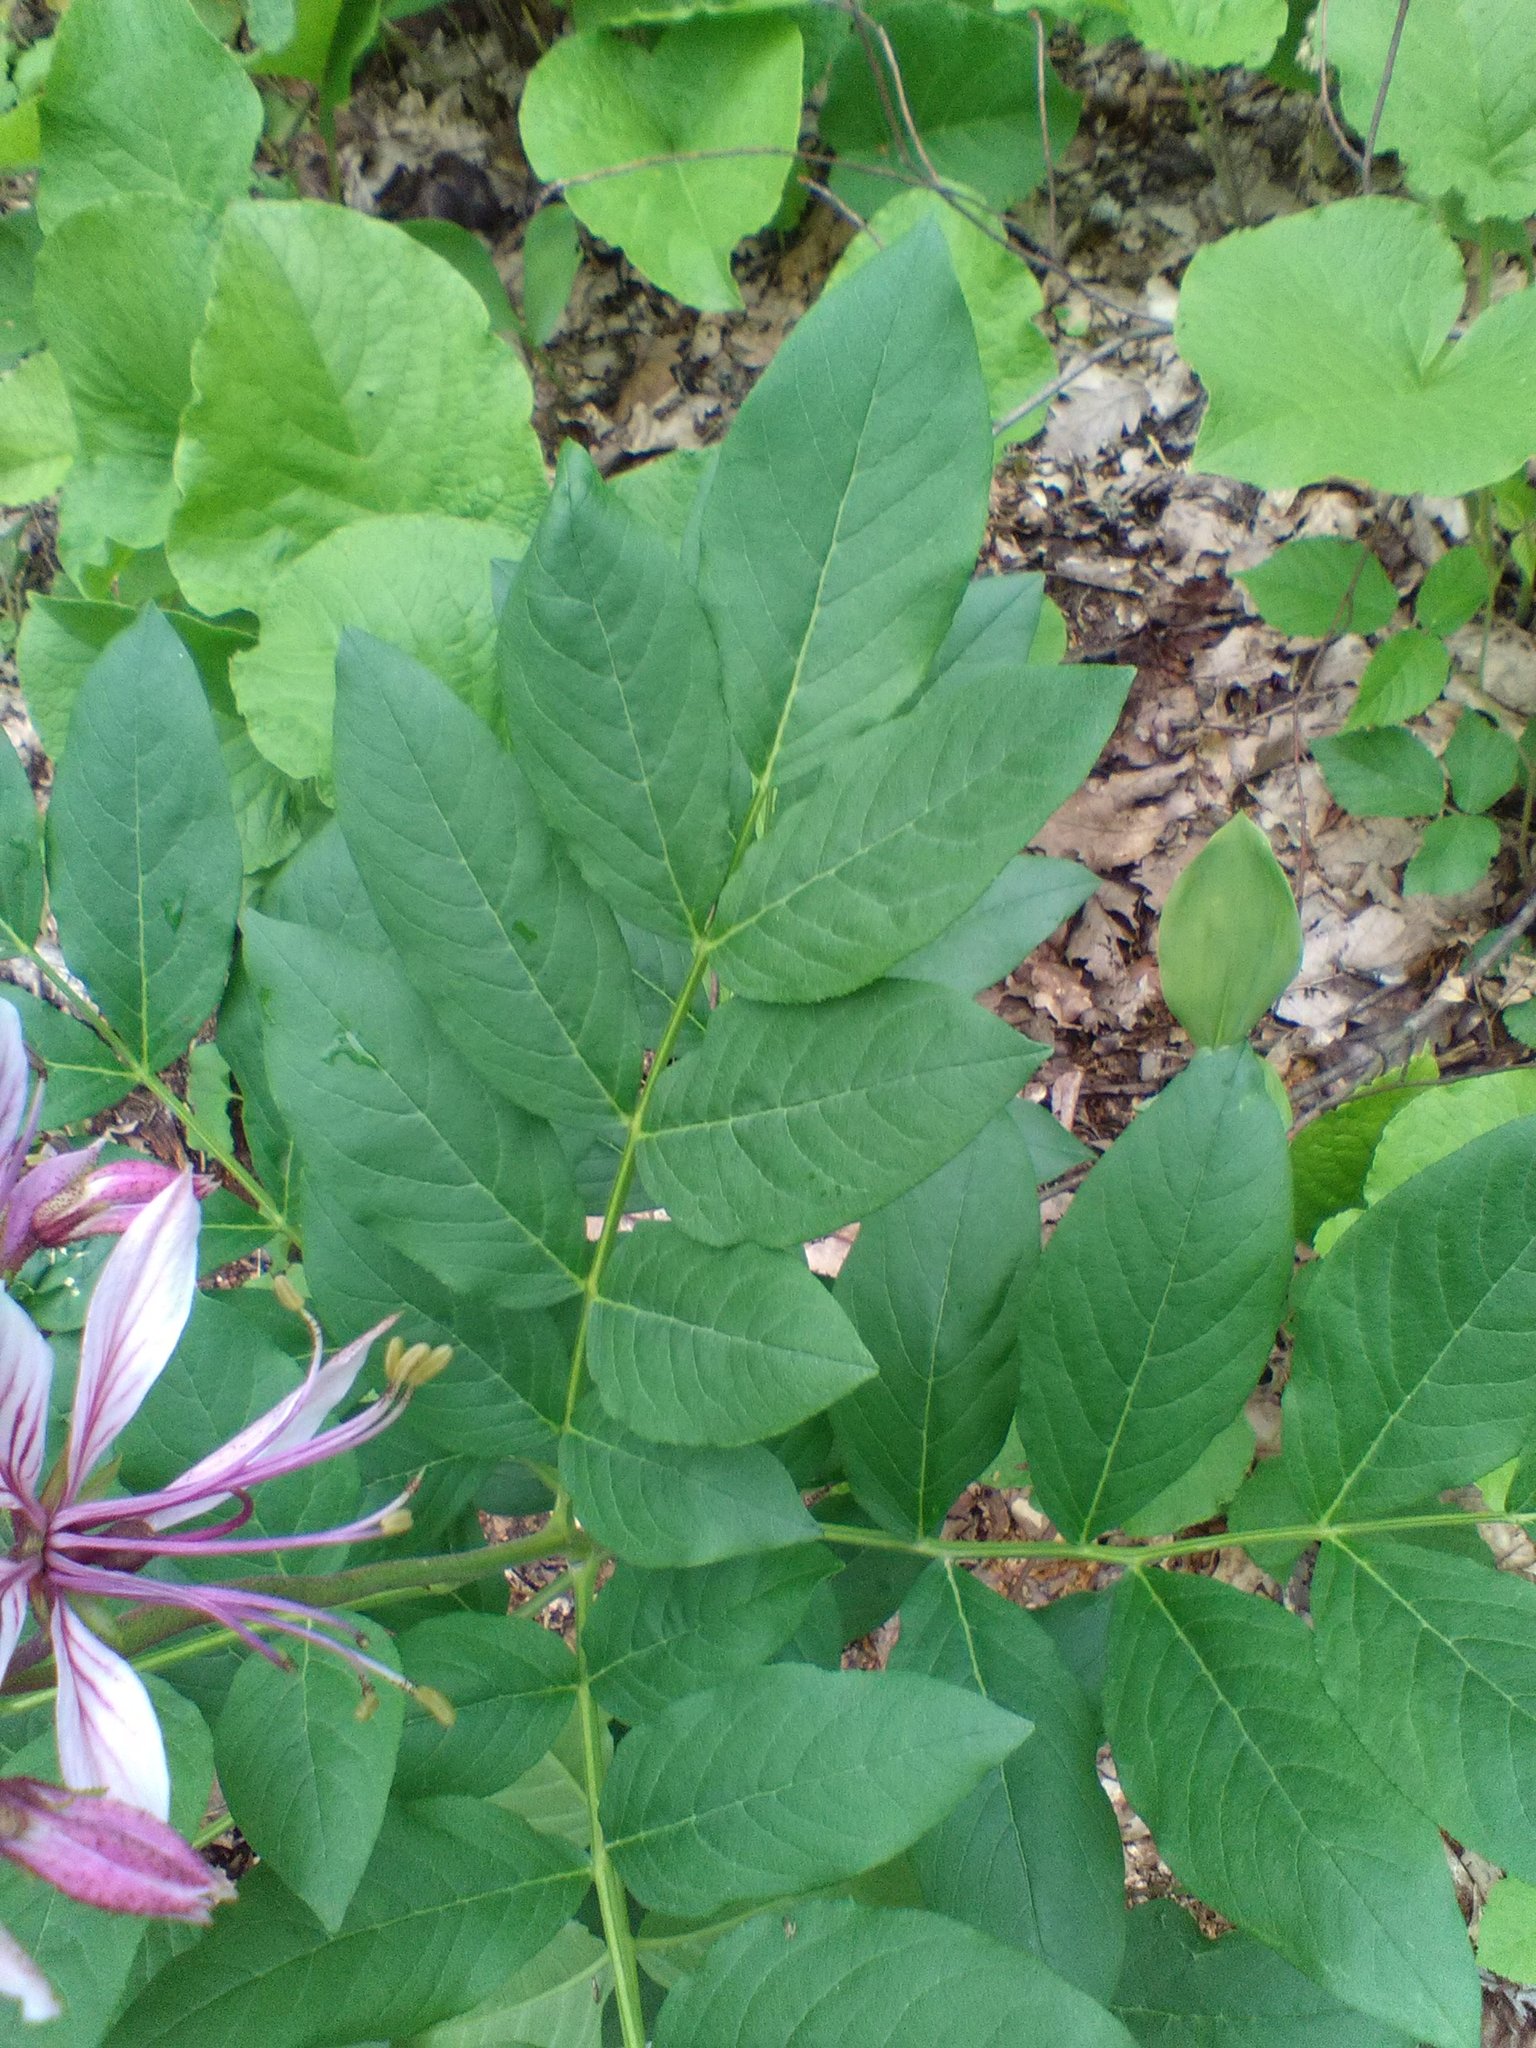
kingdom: Plantae
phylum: Tracheophyta
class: Magnoliopsida
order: Sapindales
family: Rutaceae
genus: Dictamnus
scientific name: Dictamnus albus
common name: Gasplant
